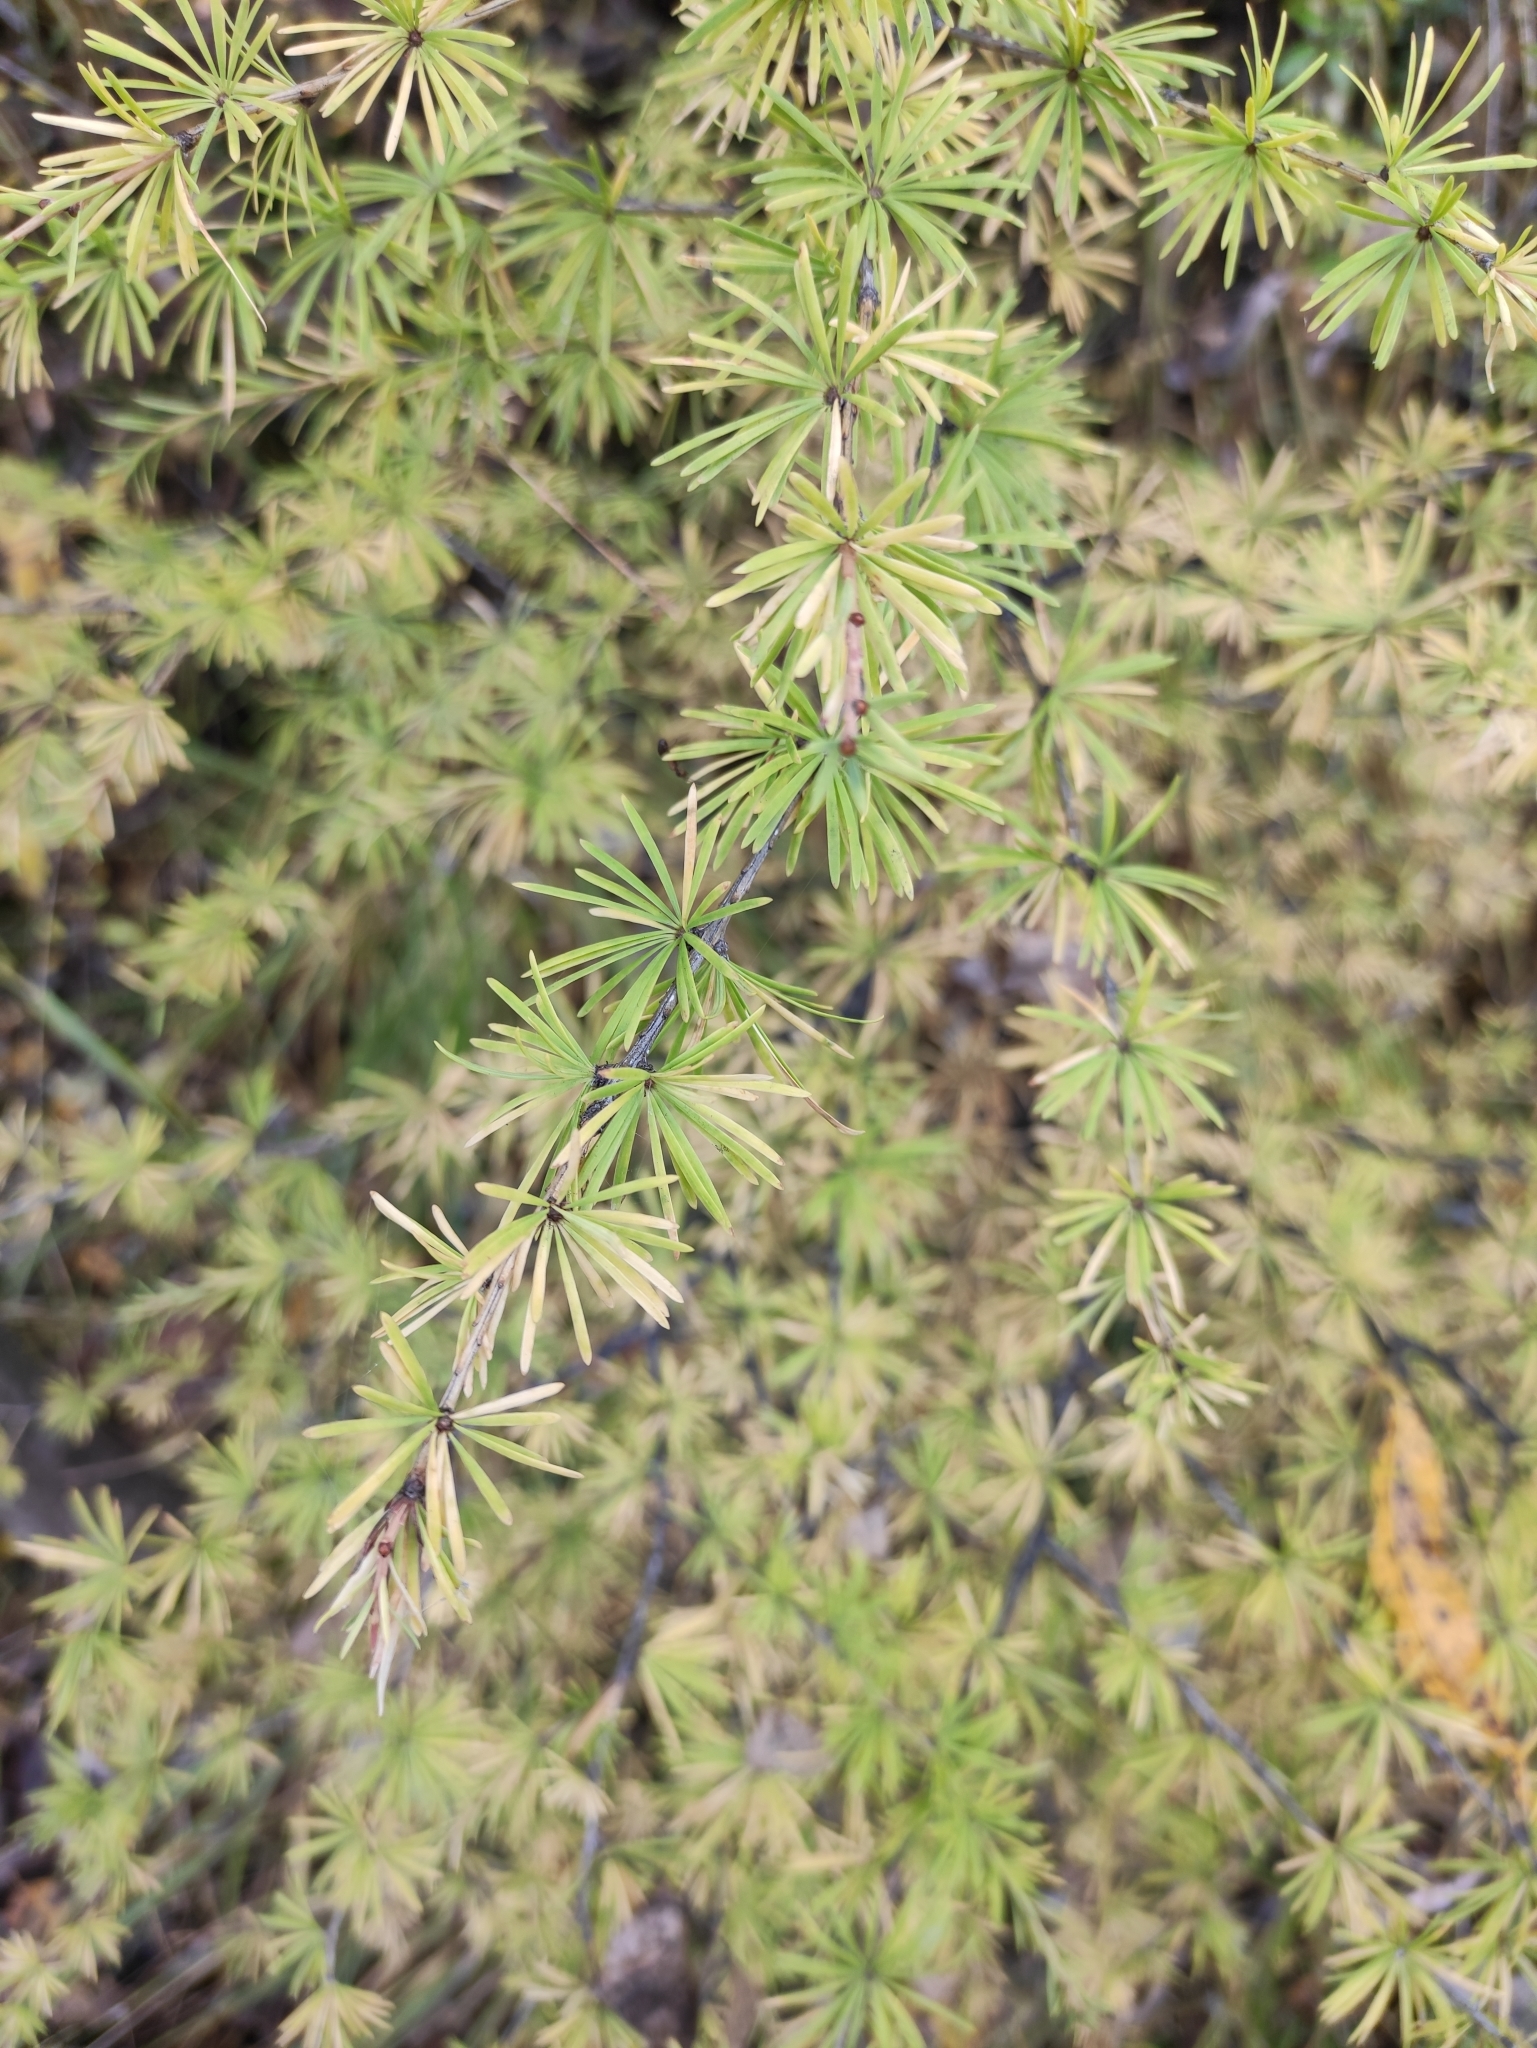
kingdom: Plantae
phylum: Tracheophyta
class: Pinopsida
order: Pinales
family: Pinaceae
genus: Larix
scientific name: Larix sibirica
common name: Siberian larch
